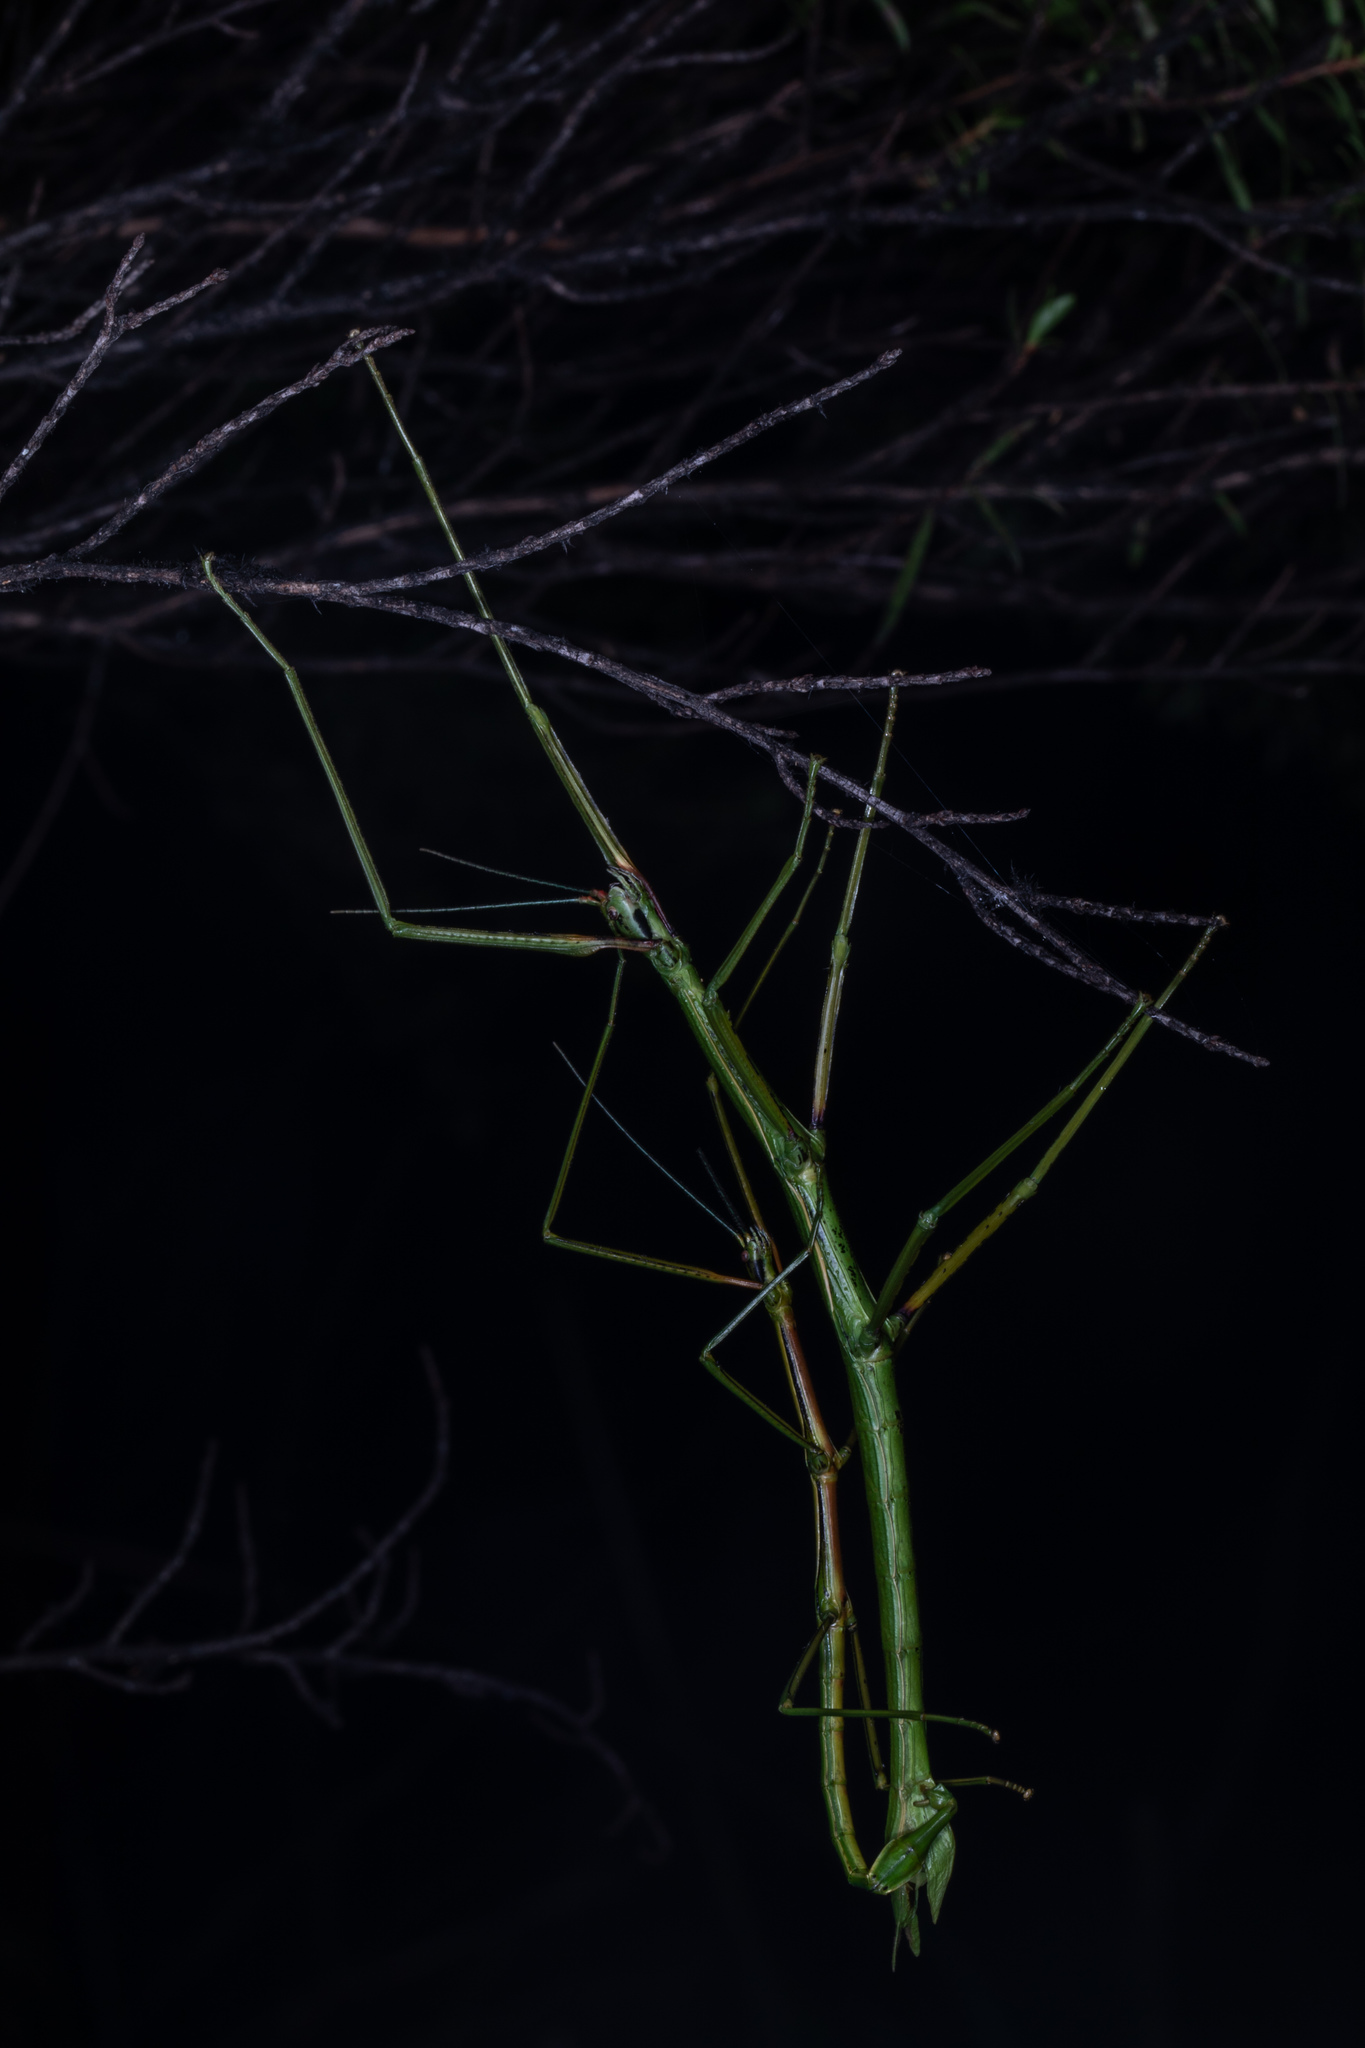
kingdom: Animalia
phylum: Arthropoda
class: Insecta
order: Phasmida
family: Phasmatidae
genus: Clitarchus
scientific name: Clitarchus hookeri
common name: Smooth stick insect
